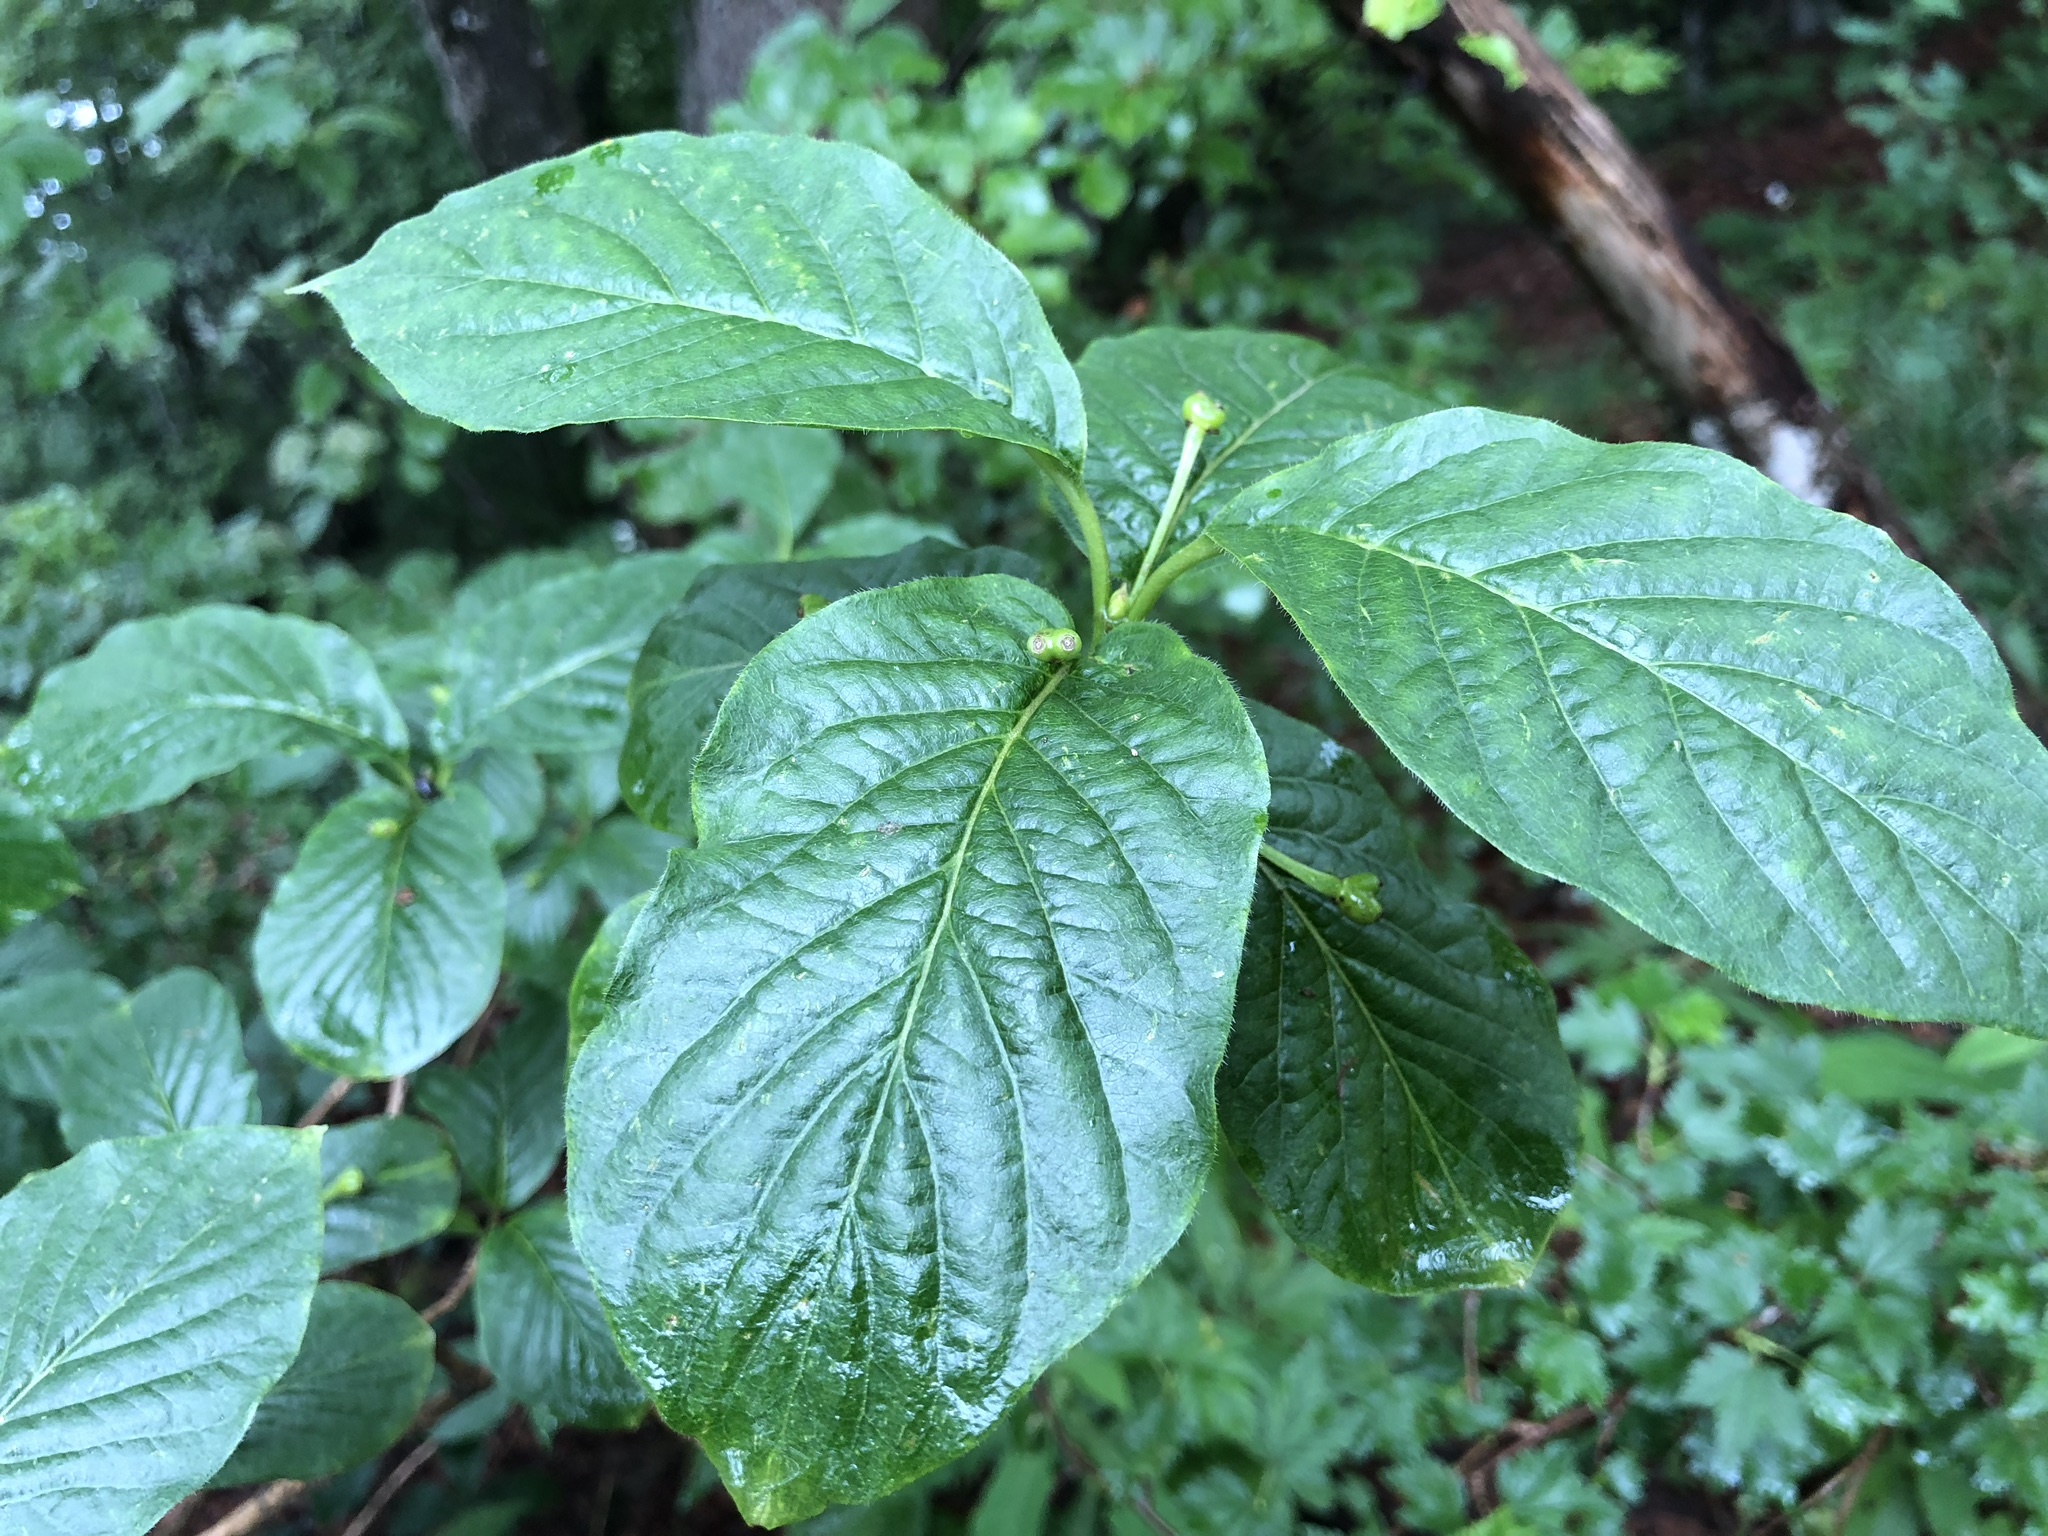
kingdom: Plantae
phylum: Tracheophyta
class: Magnoliopsida
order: Dipsacales
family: Caprifoliaceae
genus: Lonicera
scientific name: Lonicera alpigena
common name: Alpine honeysuckle
